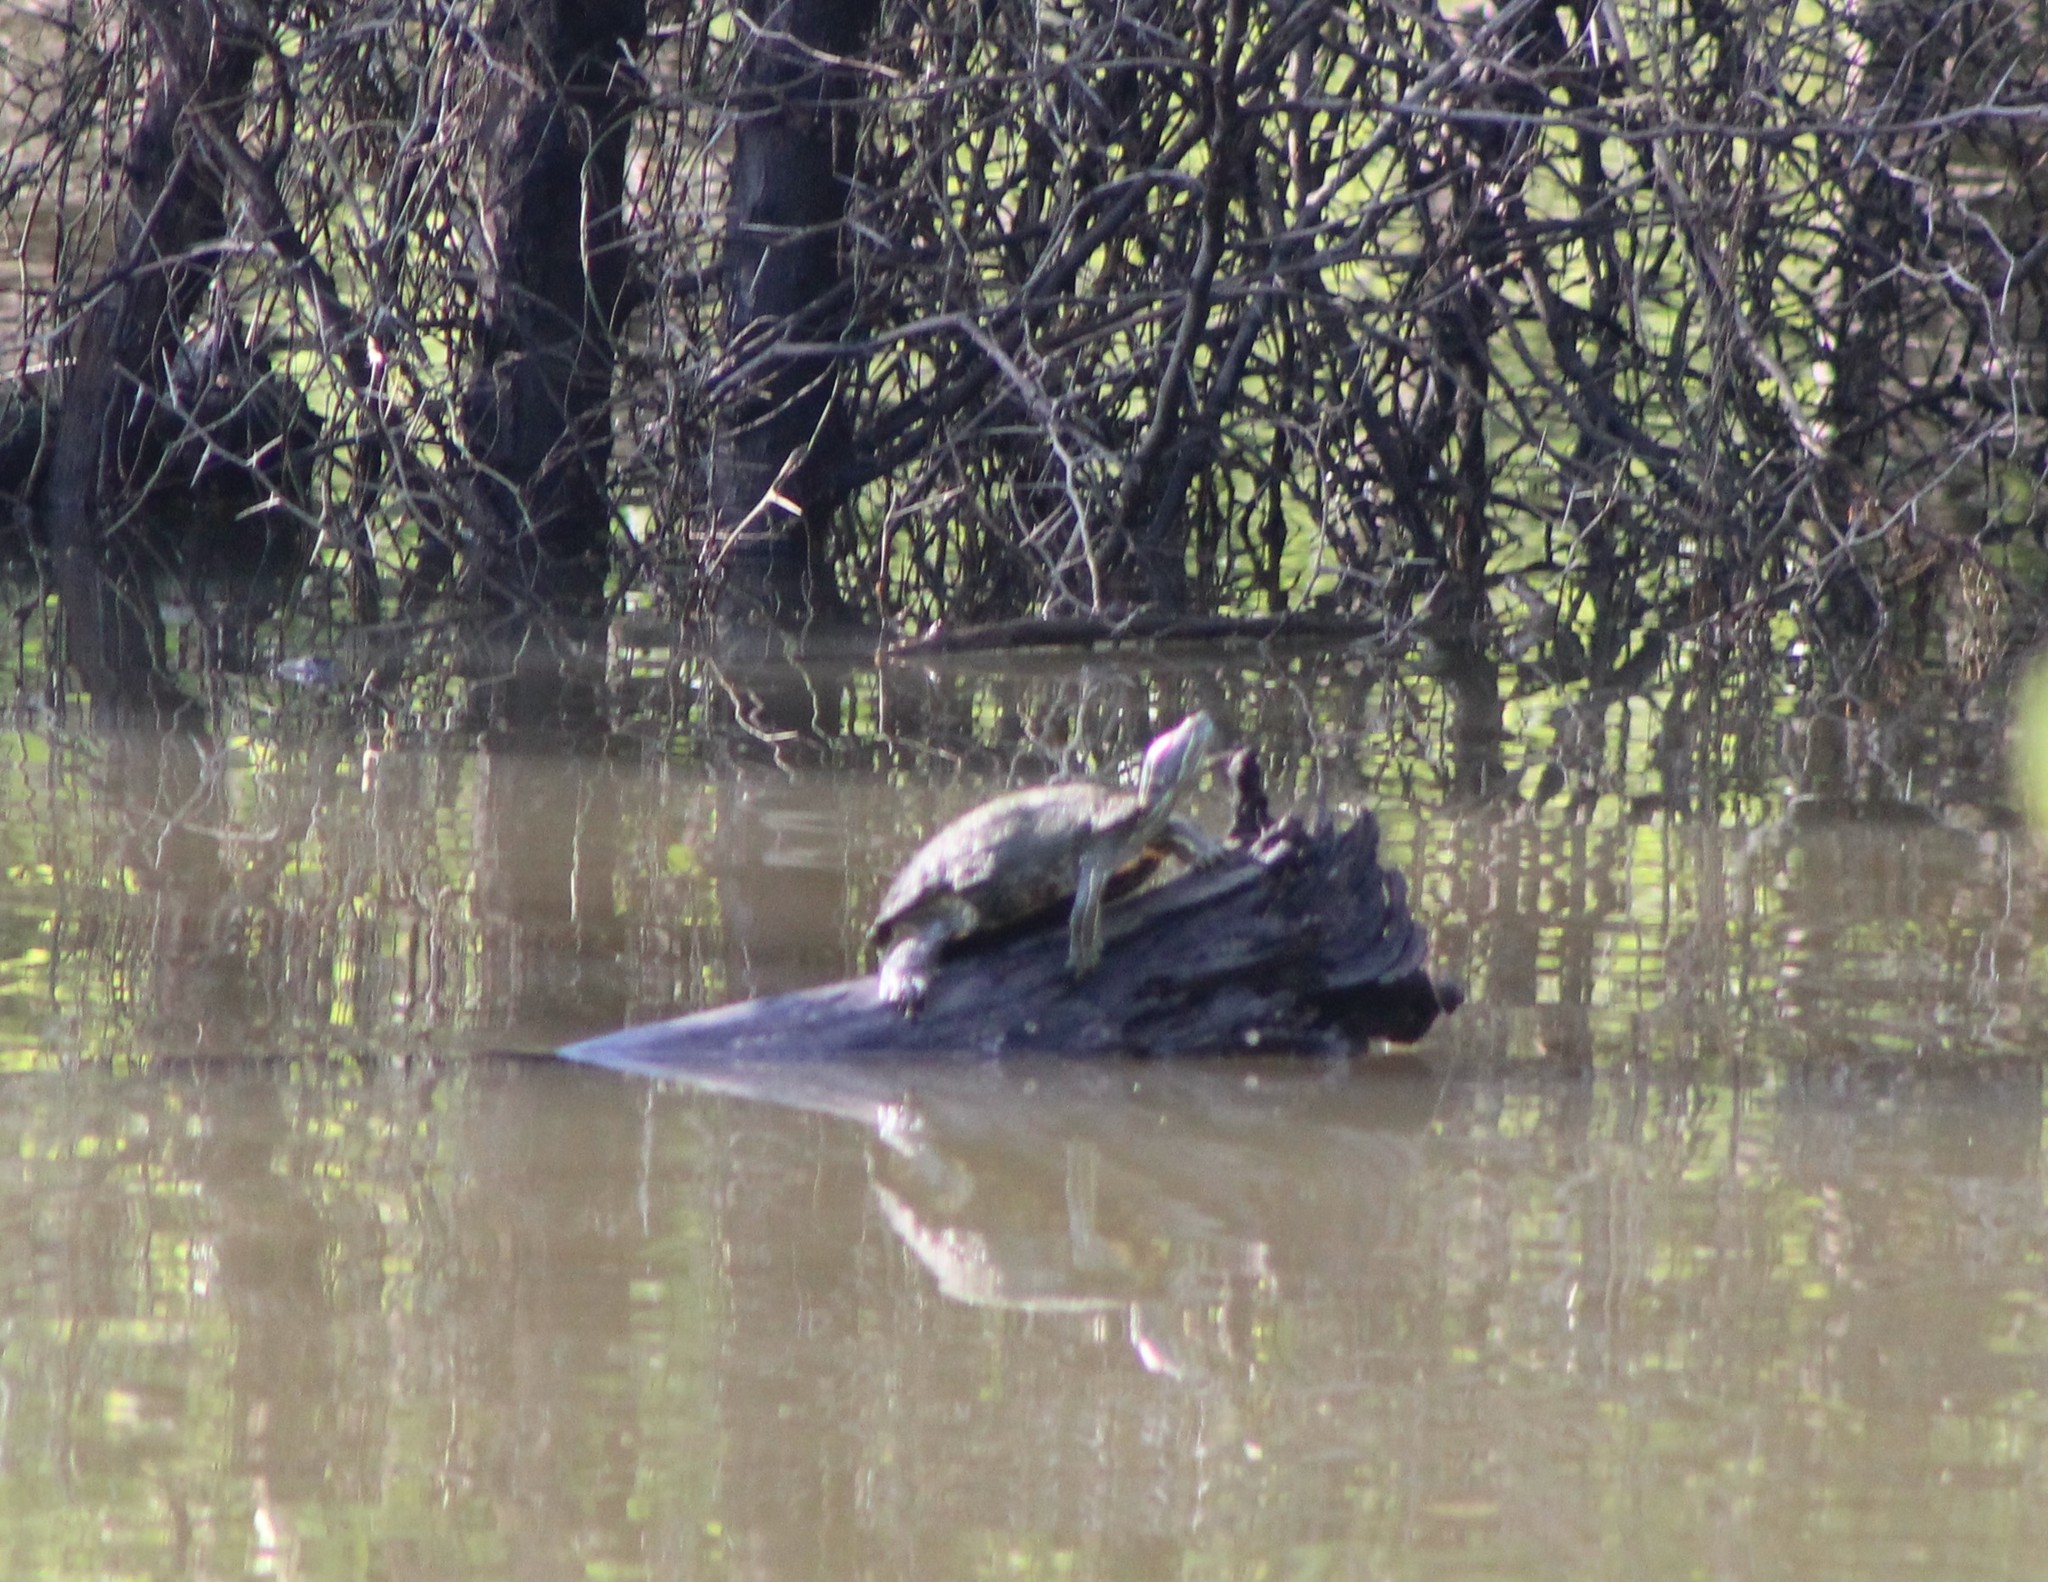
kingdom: Animalia
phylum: Chordata
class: Testudines
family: Emydidae
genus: Trachemys
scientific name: Trachemys scripta
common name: Slider
